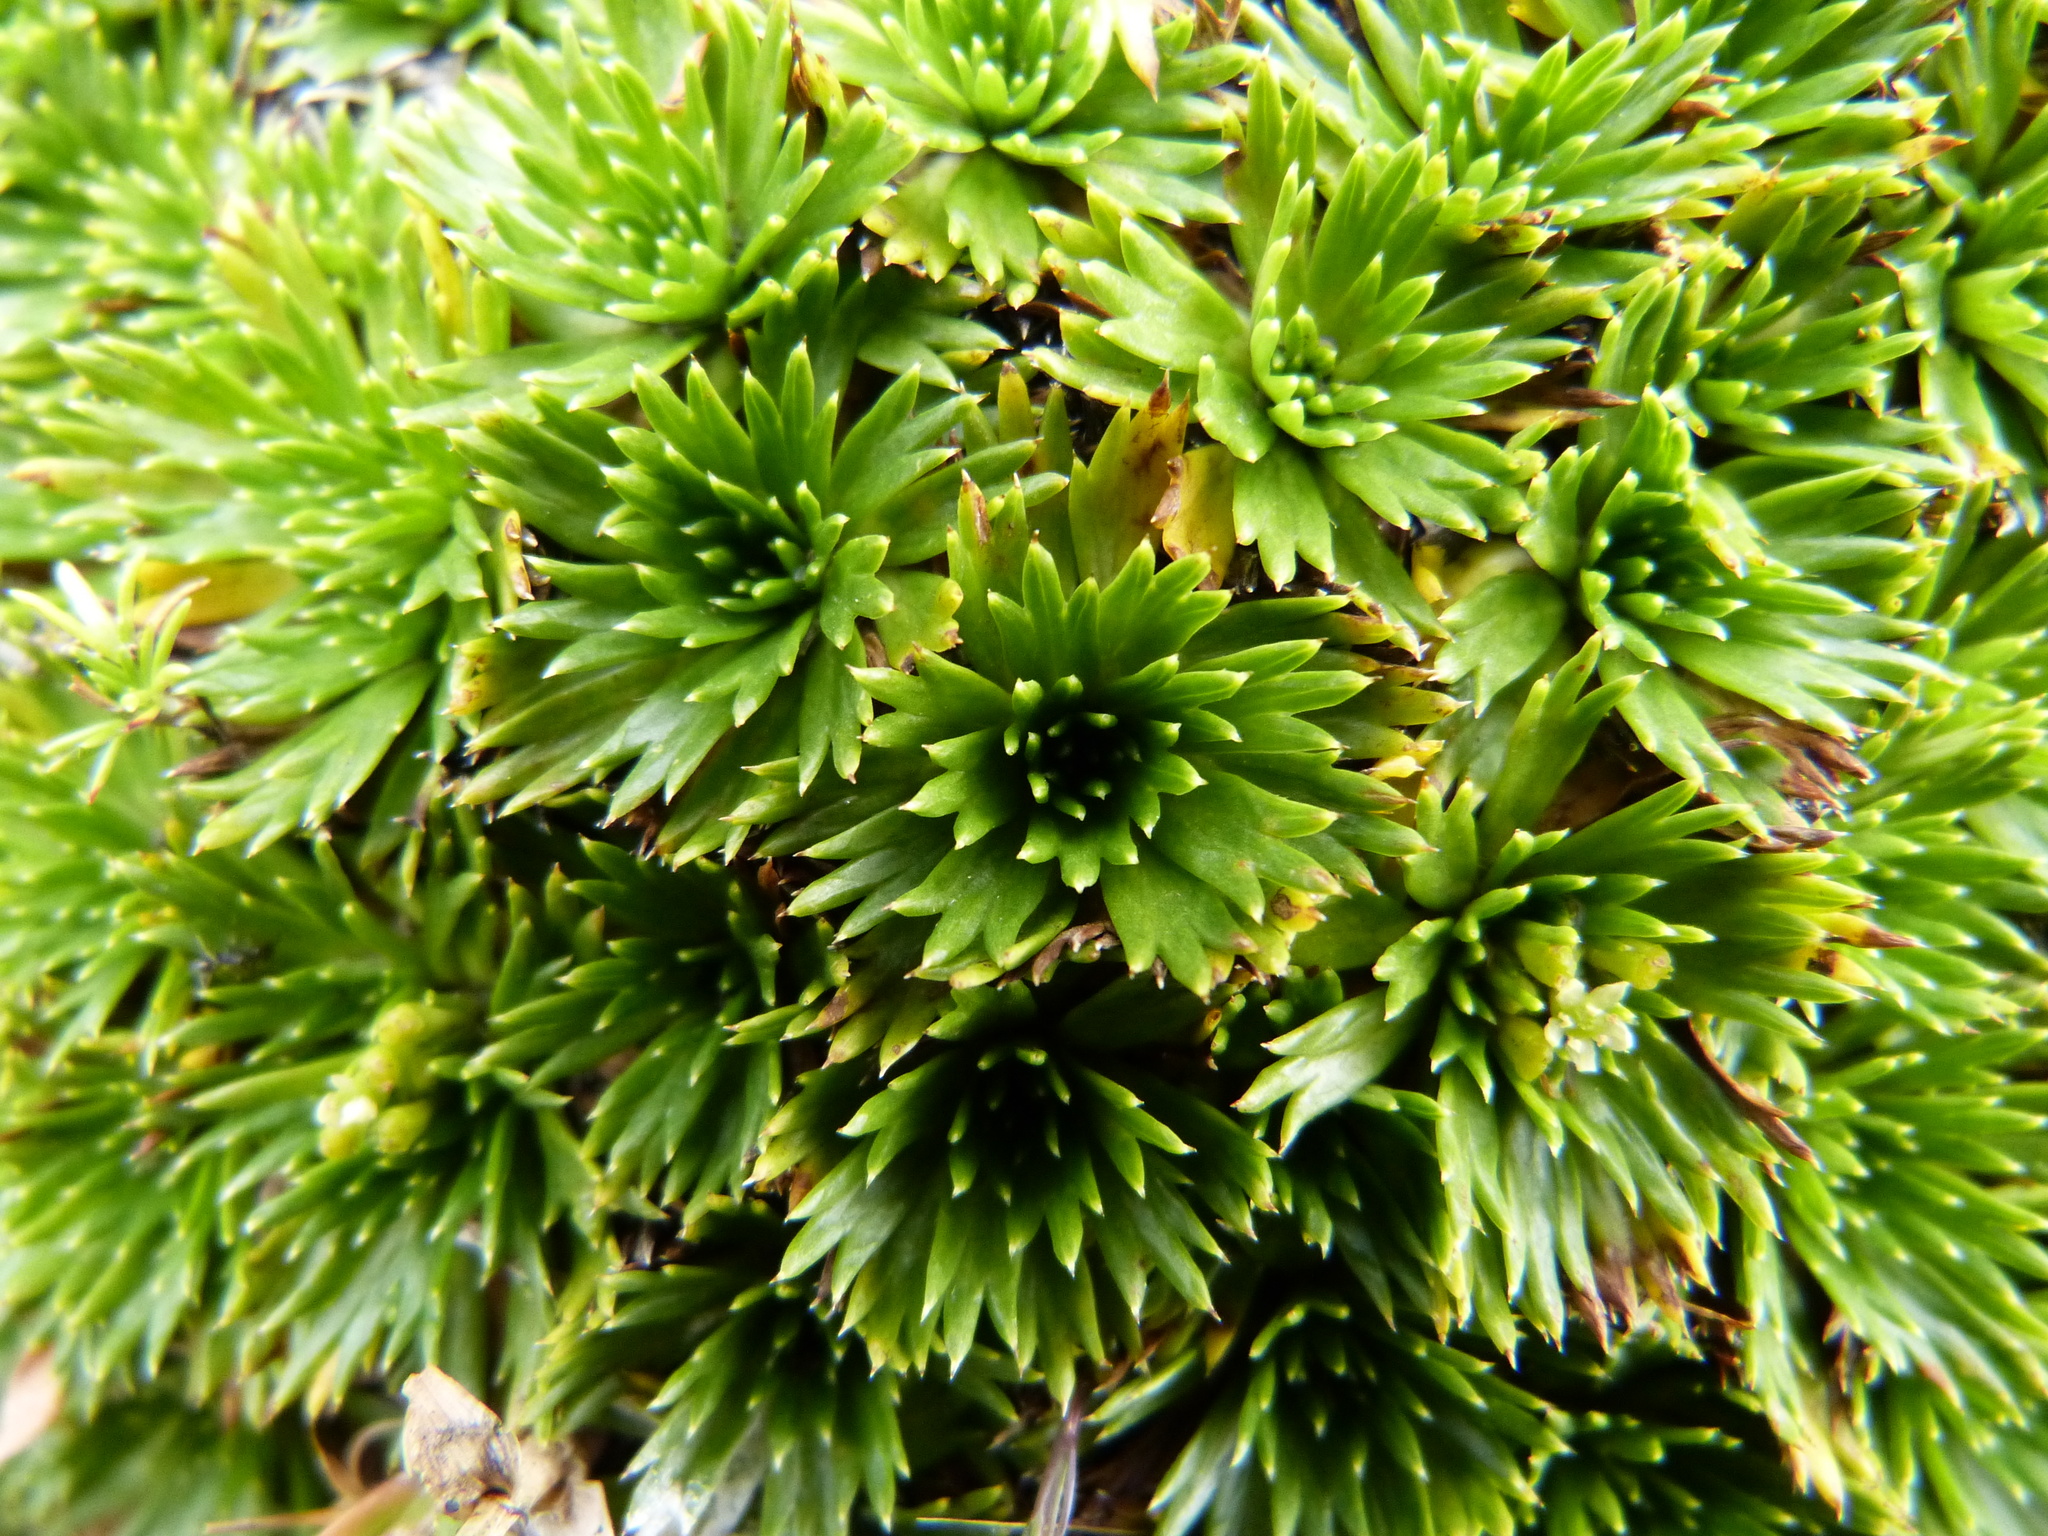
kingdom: Plantae
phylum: Tracheophyta
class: Magnoliopsida
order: Apiales
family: Apiaceae
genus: Azorella
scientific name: Azorella pedunculata
